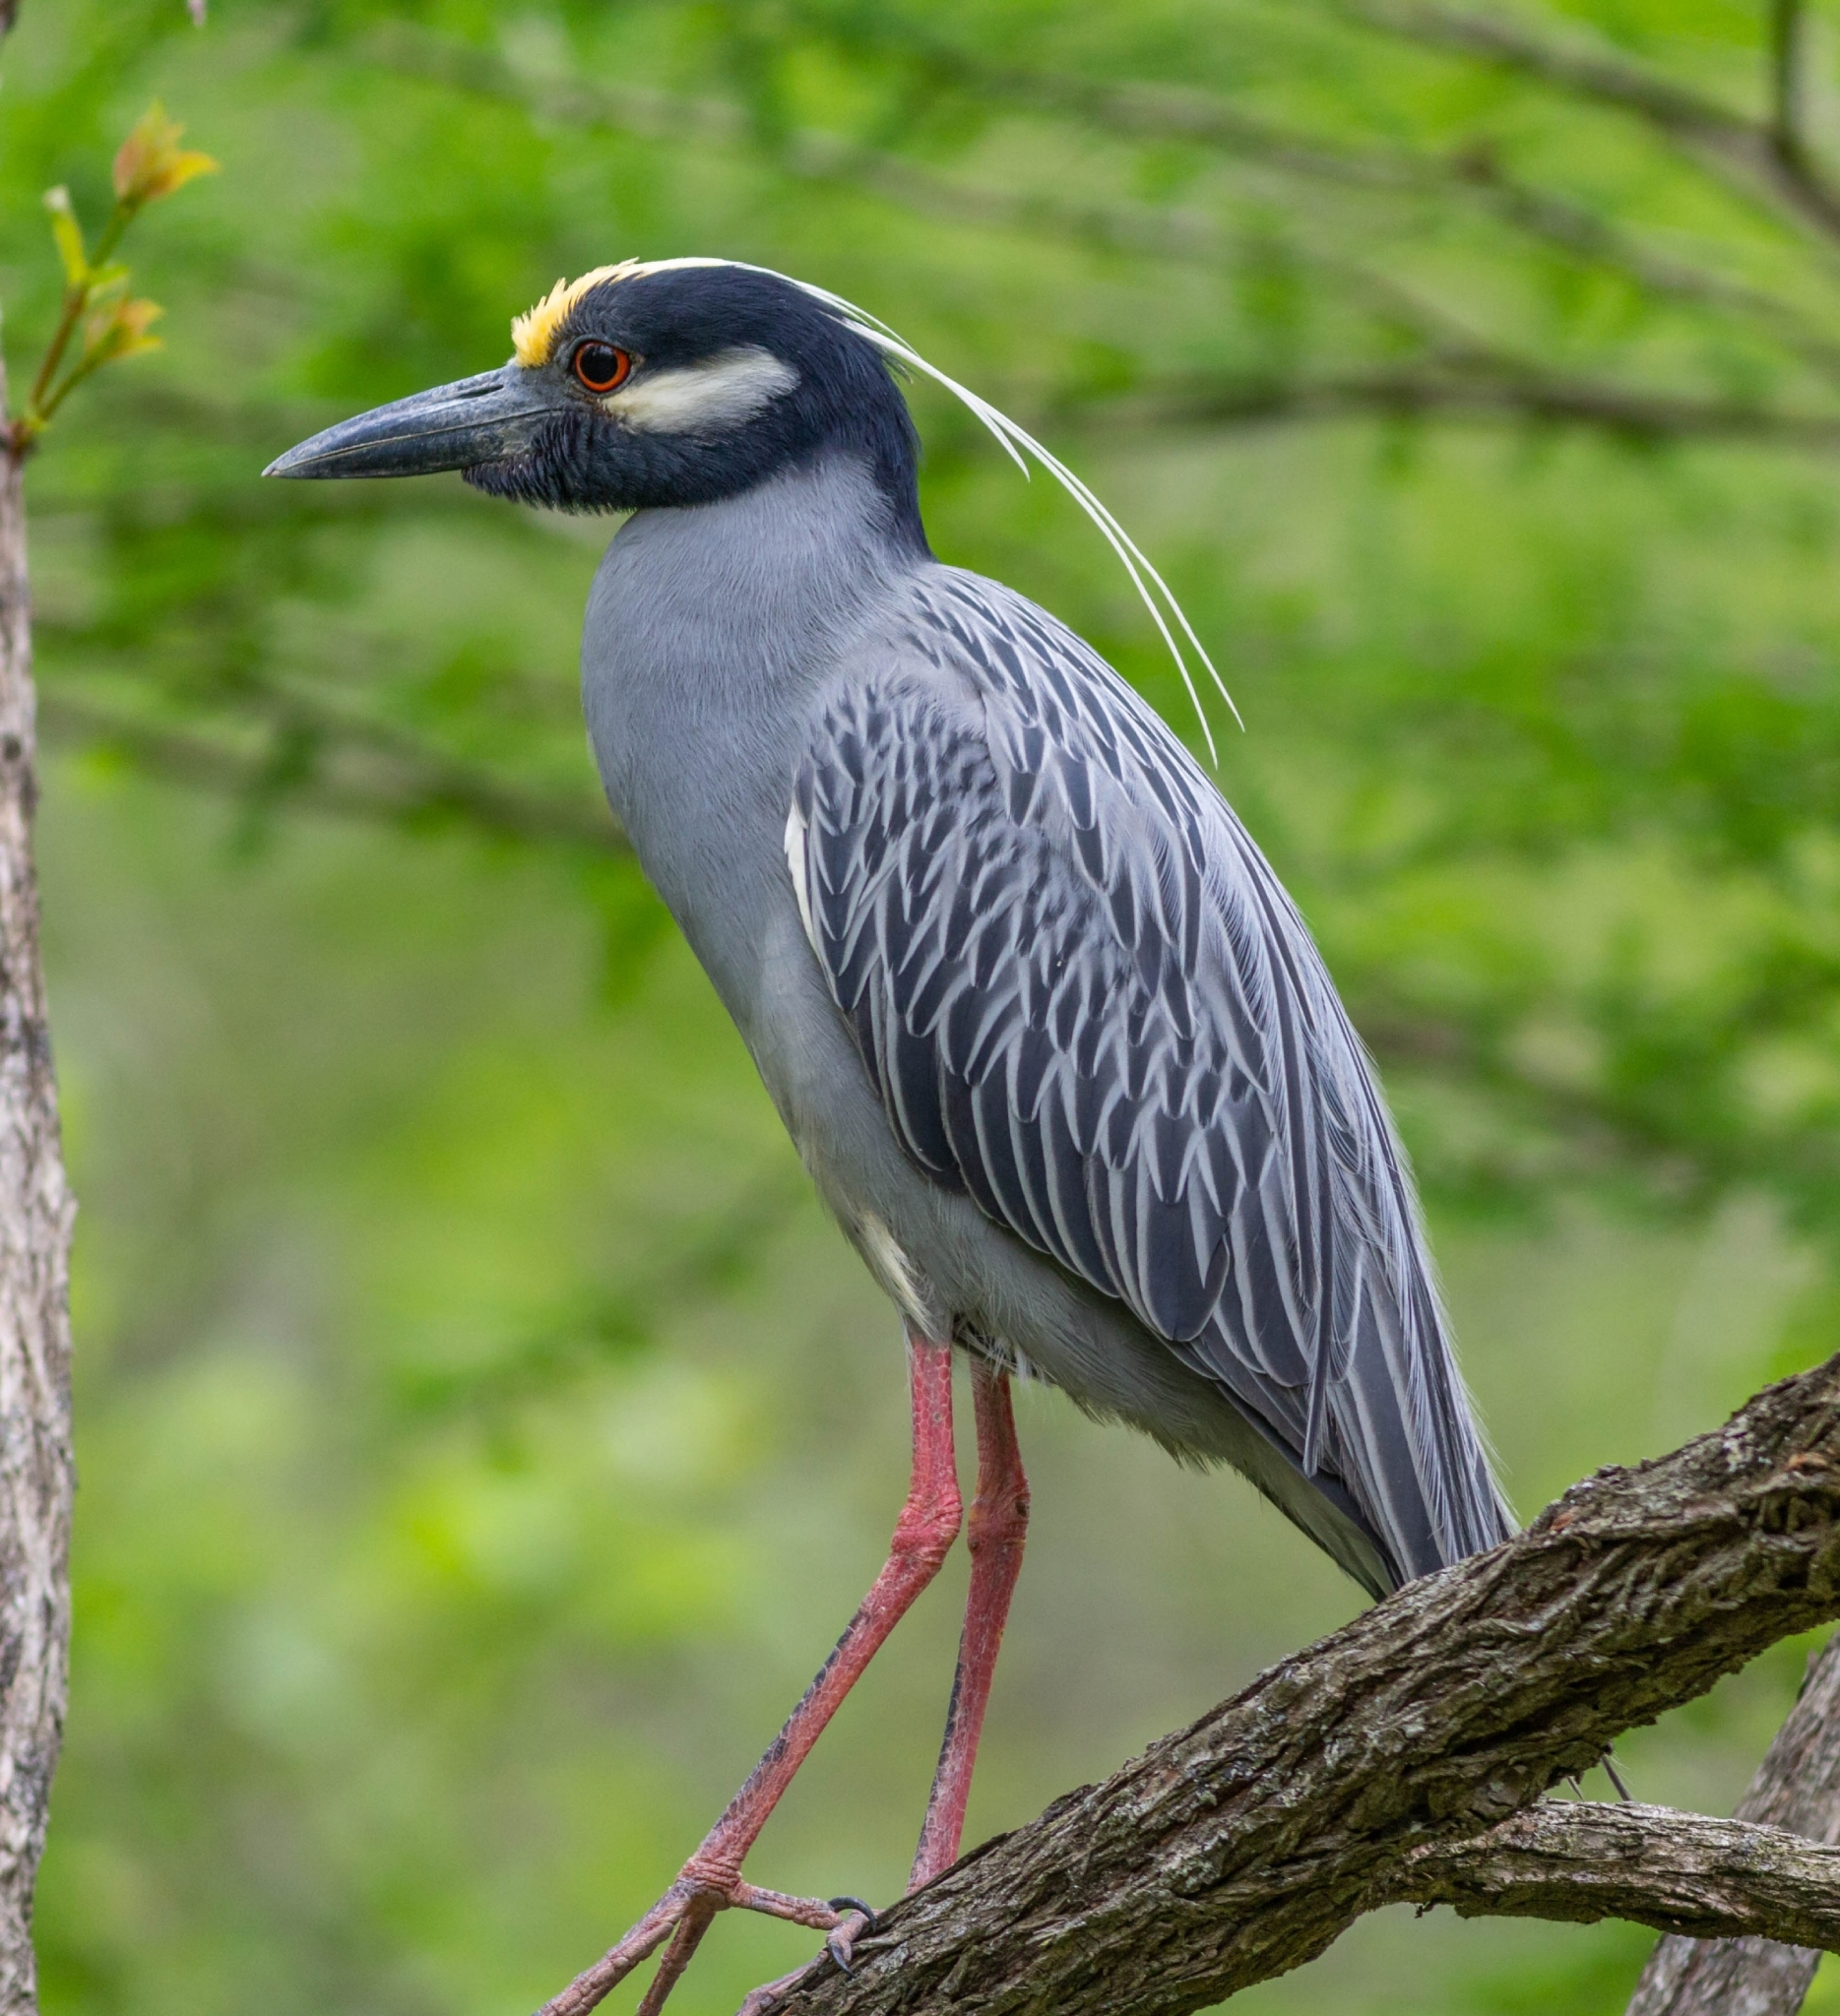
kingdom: Animalia
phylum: Chordata
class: Aves
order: Pelecaniformes
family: Ardeidae
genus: Nyctanassa
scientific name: Nyctanassa violacea
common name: Yellow-crowned night heron
